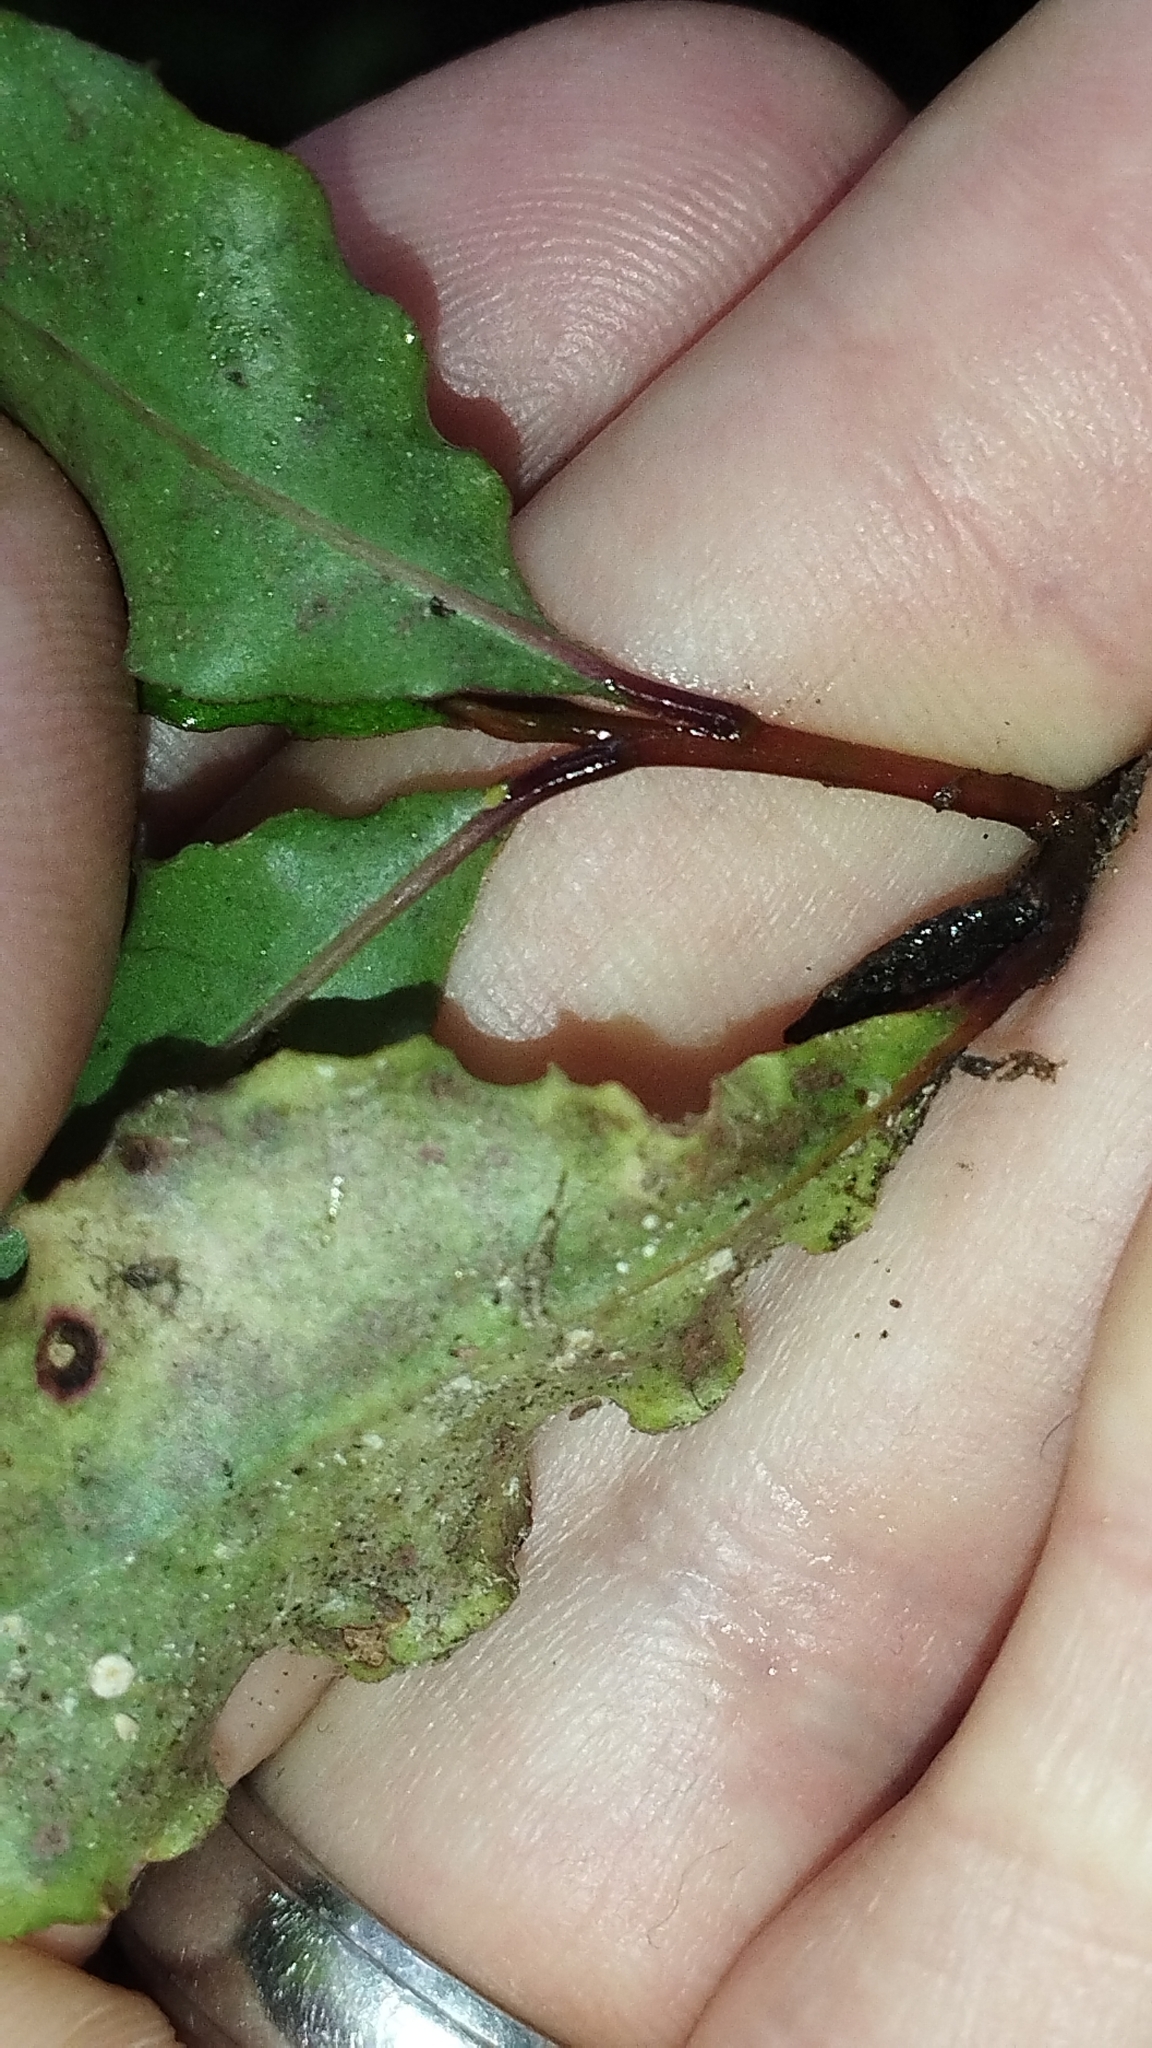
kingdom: Plantae
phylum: Tracheophyta
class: Magnoliopsida
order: Ericales
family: Primulaceae
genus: Myrsine
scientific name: Myrsine australis
